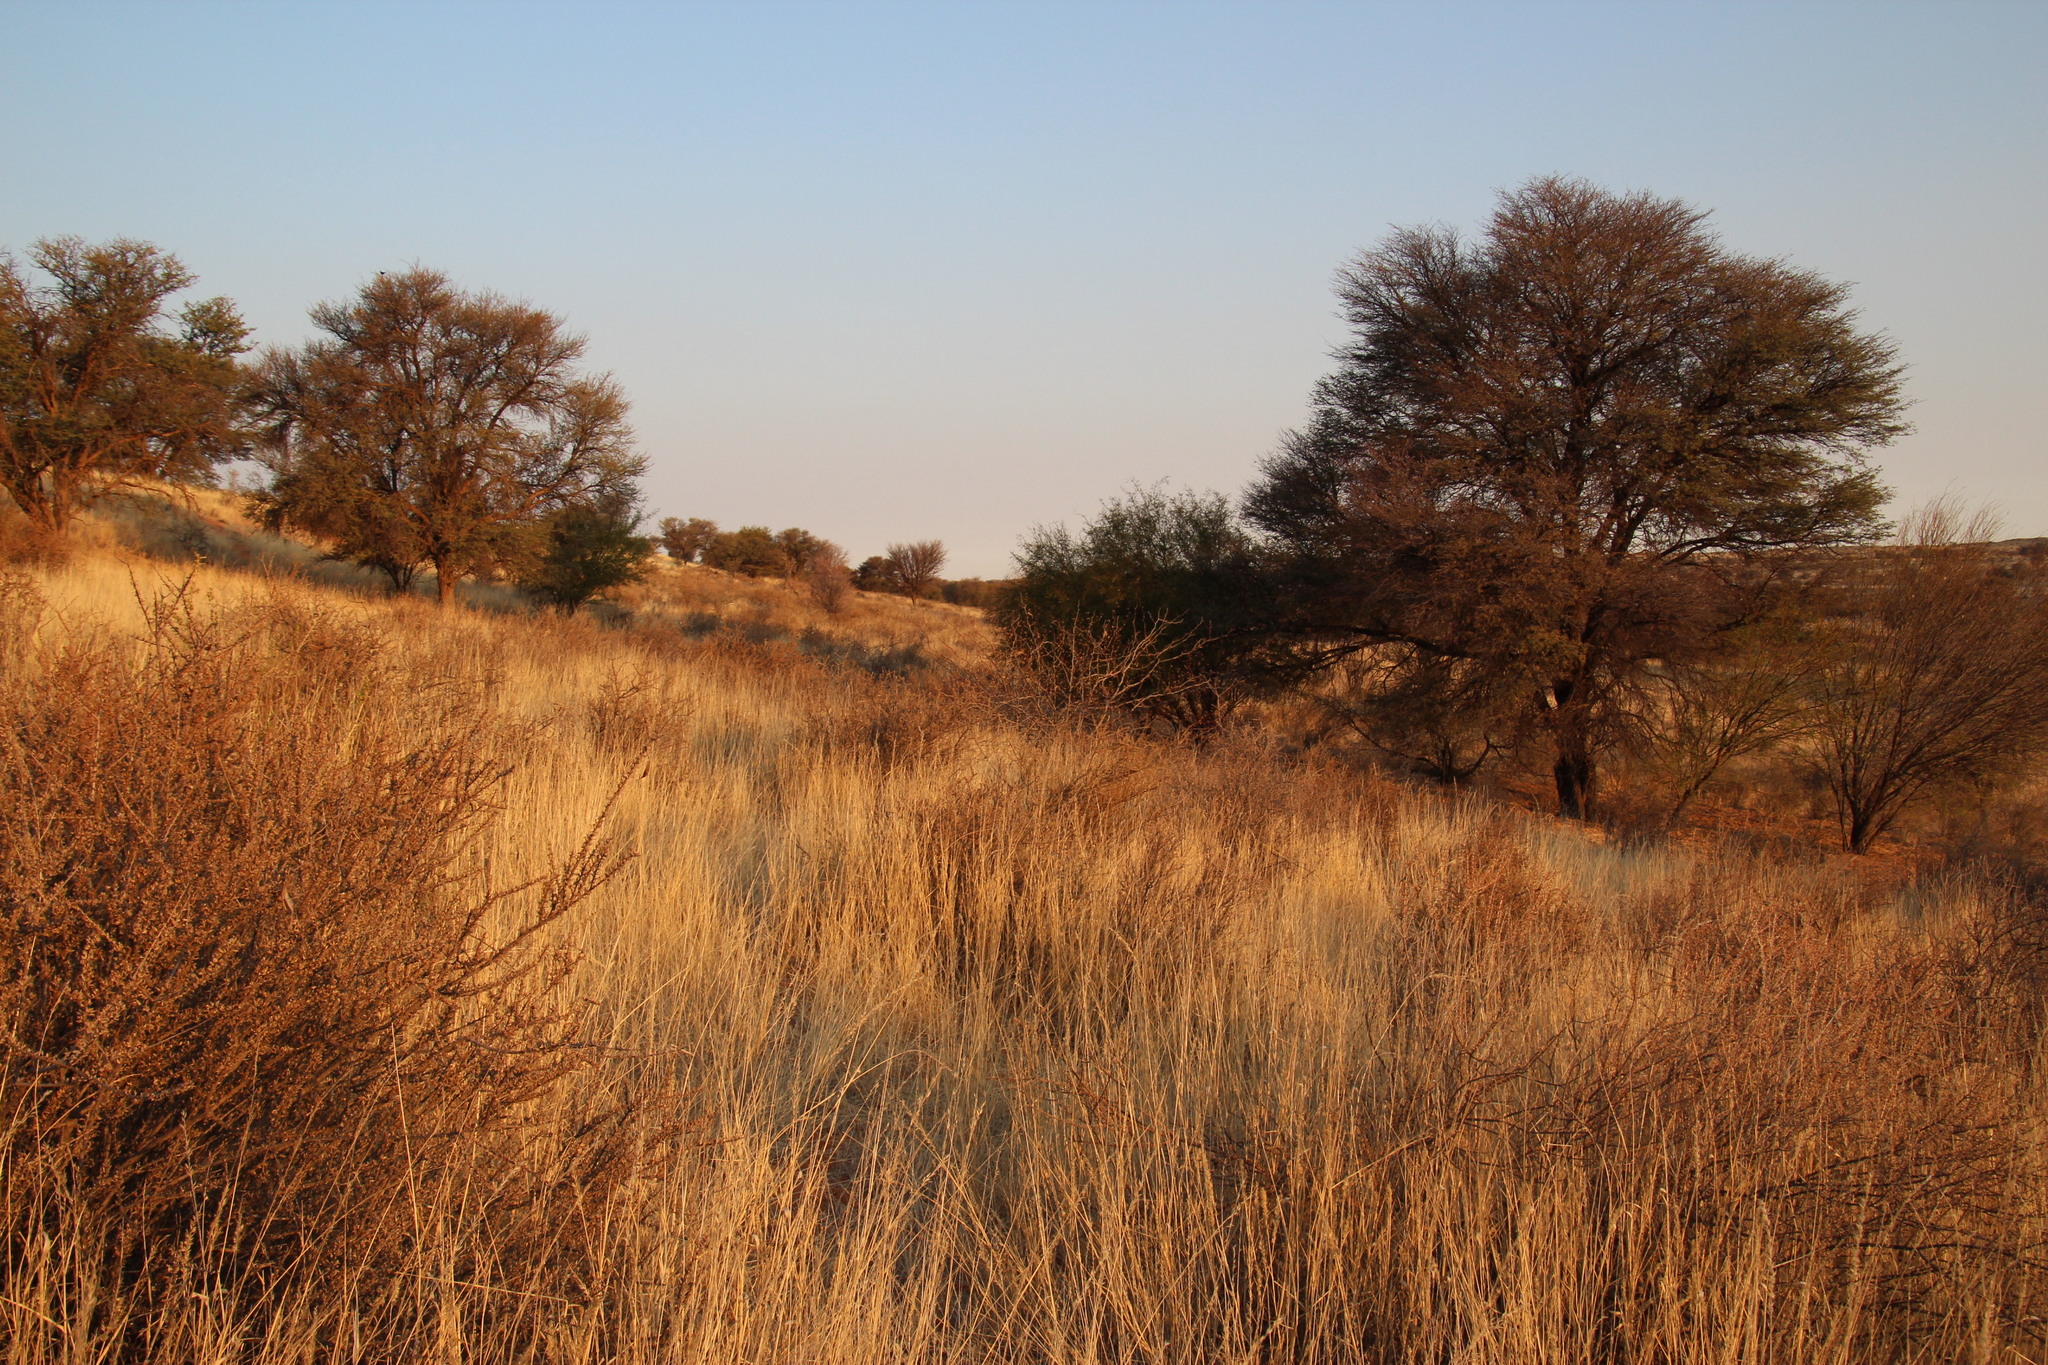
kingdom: Plantae
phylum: Tracheophyta
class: Magnoliopsida
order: Lamiales
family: Bignoniaceae
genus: Rhigozum
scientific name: Rhigozum trichotomum
